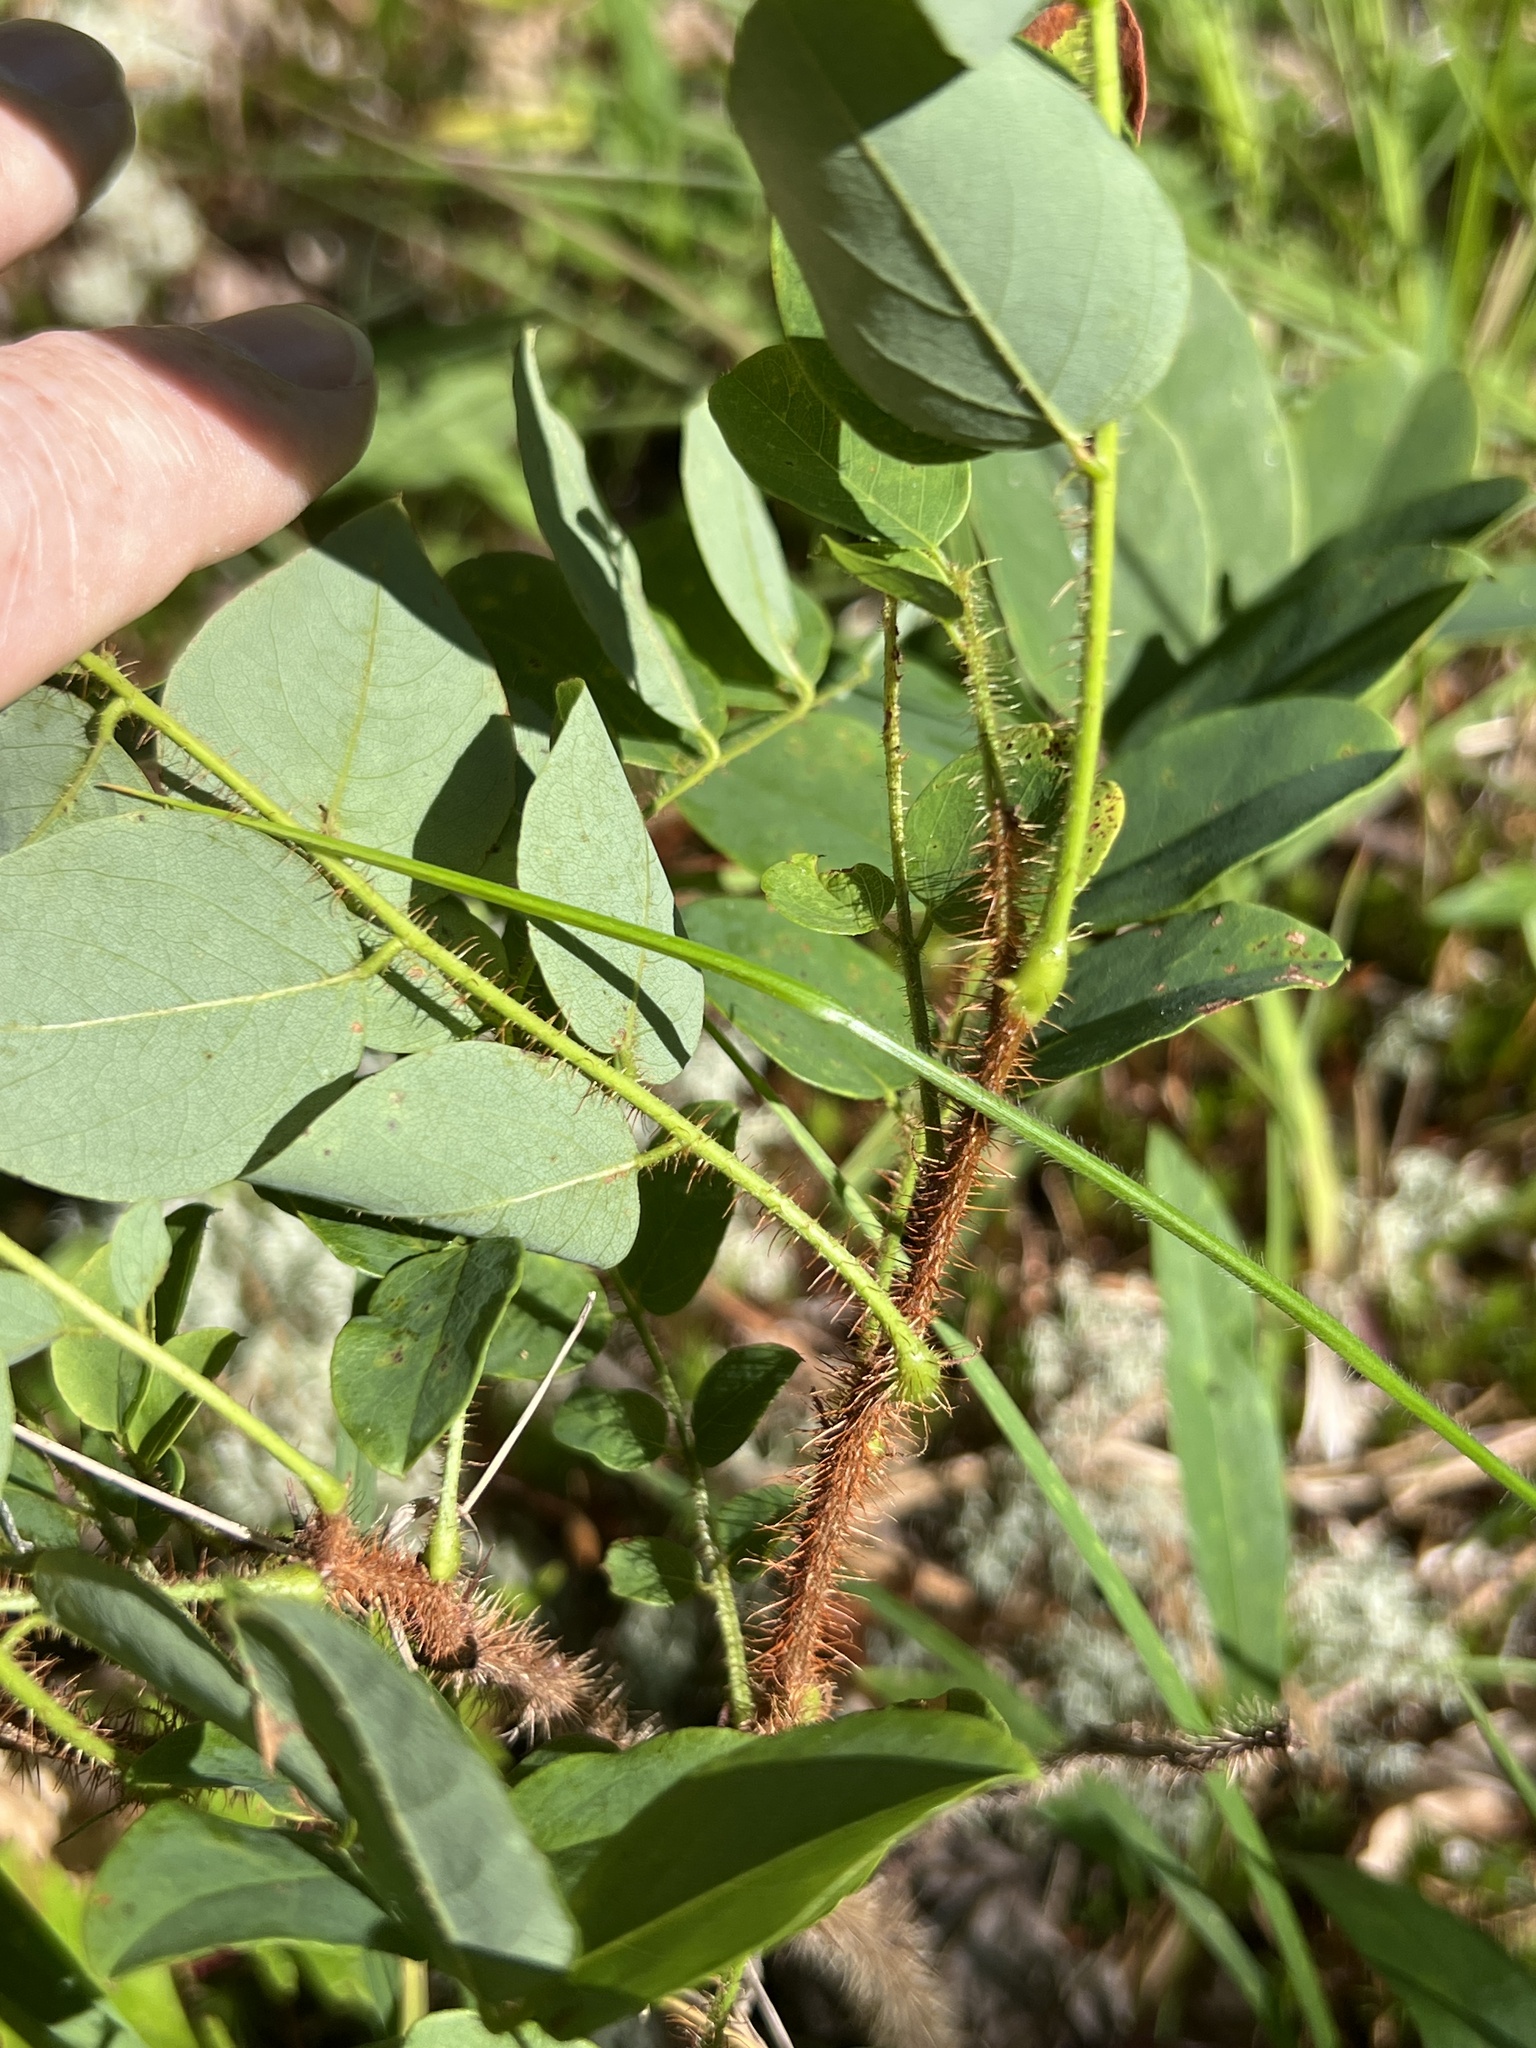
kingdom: Plantae
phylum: Tracheophyta
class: Magnoliopsida
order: Fabales
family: Fabaceae
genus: Robinia
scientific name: Robinia hispida
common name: Bristly locust
